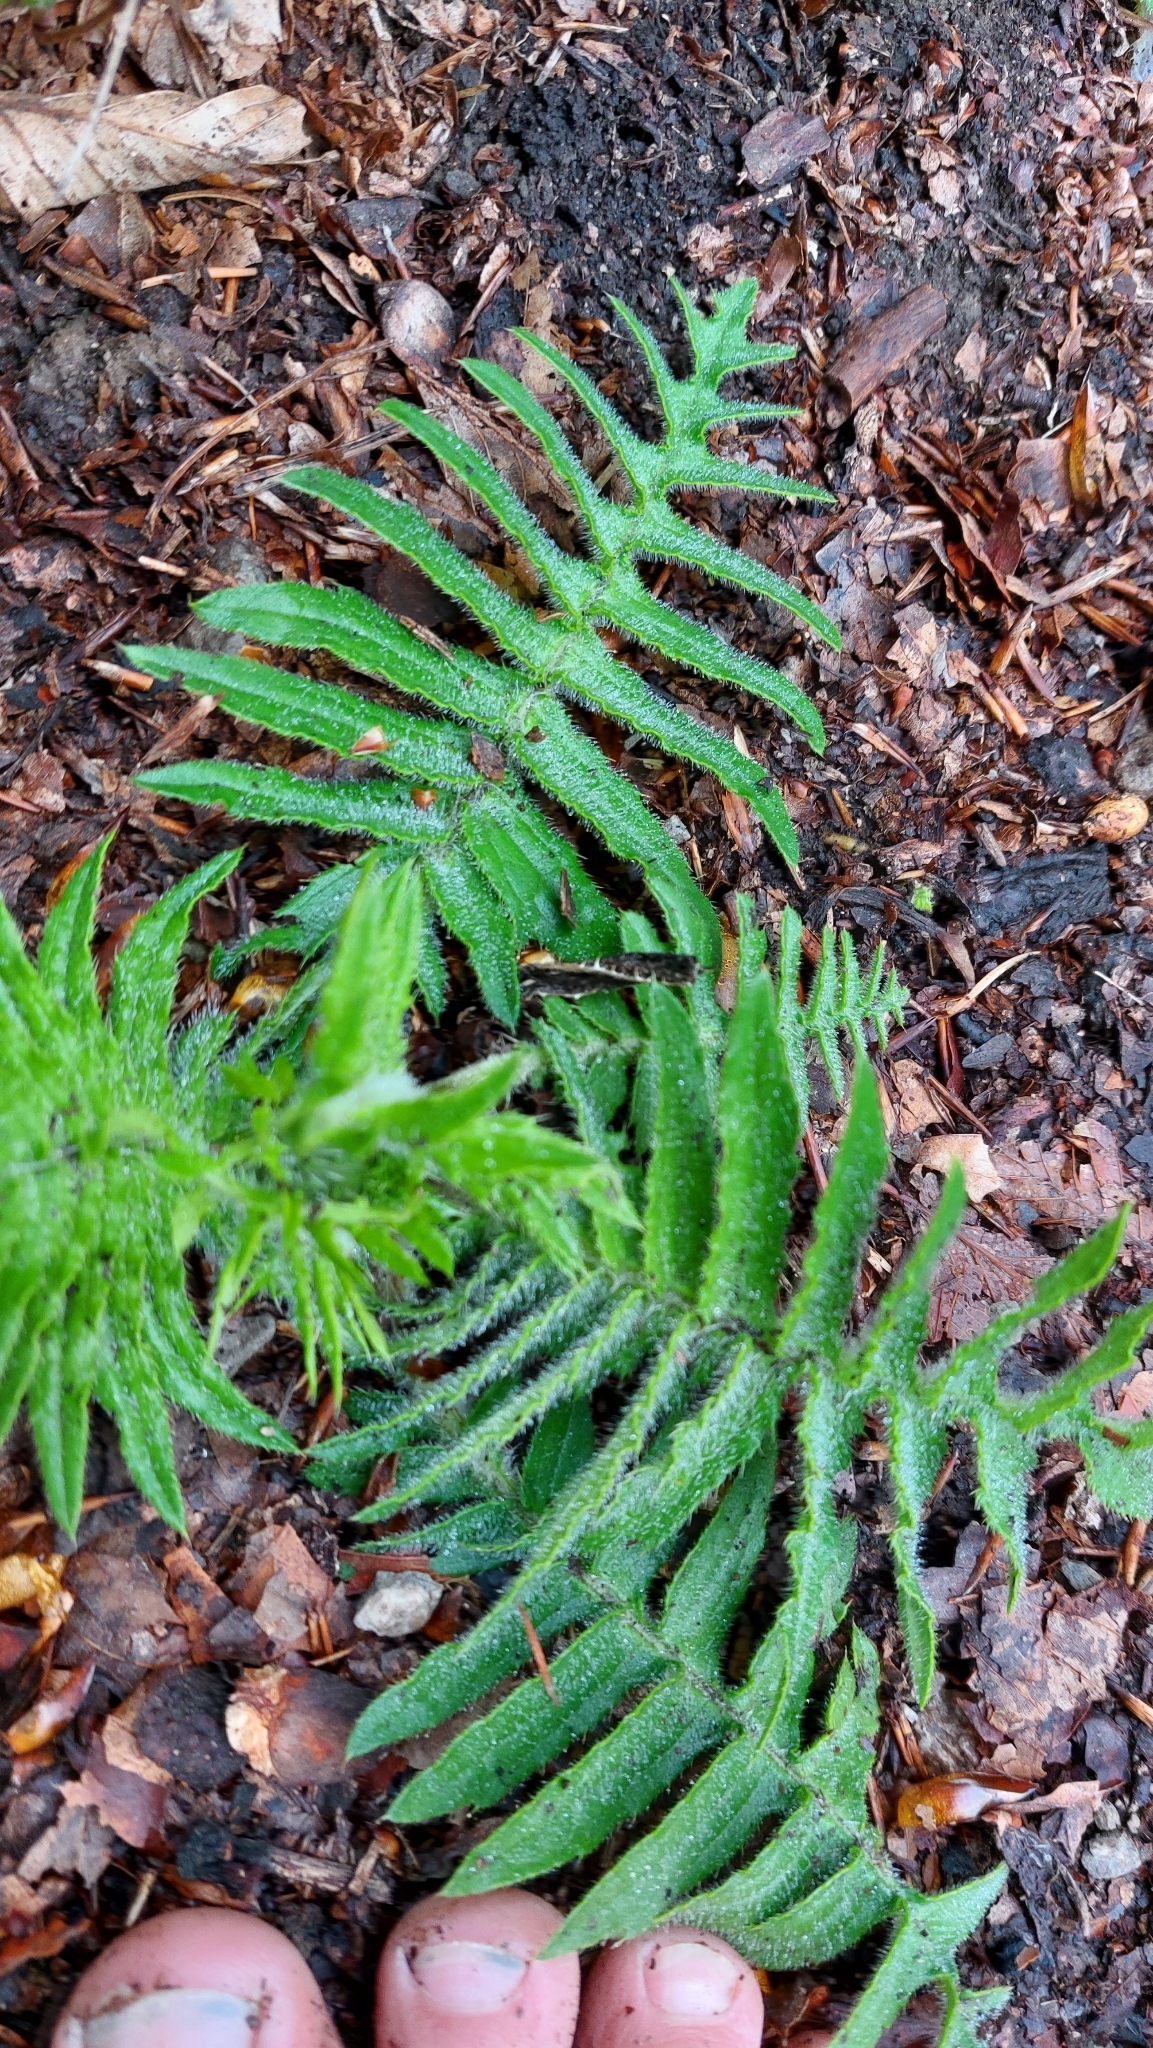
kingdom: Plantae
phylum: Tracheophyta
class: Magnoliopsida
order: Asterales
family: Asteraceae
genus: Cirsium
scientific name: Cirsium erisithales
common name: Yellow thistle
